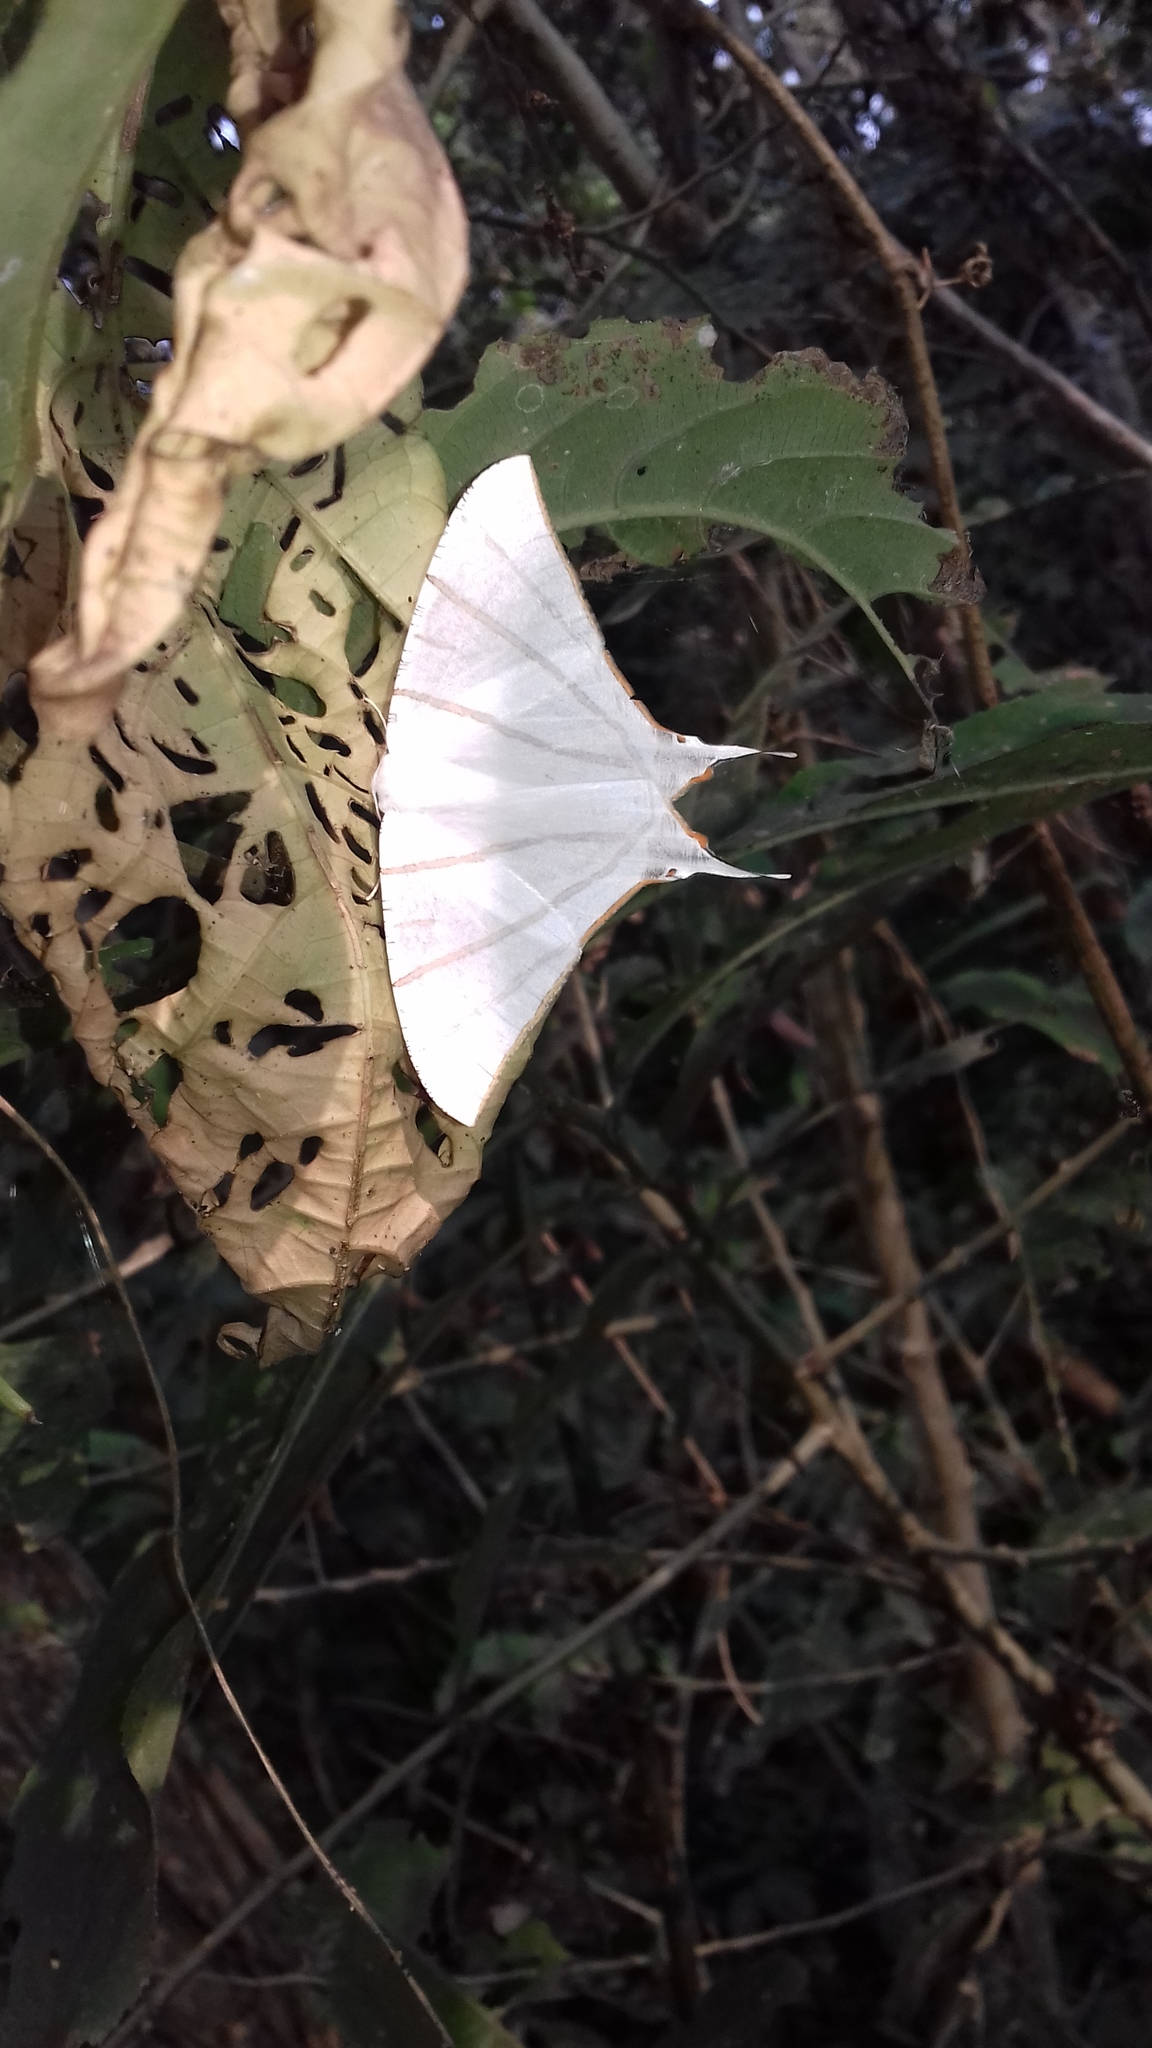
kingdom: Animalia
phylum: Arthropoda
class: Insecta
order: Lepidoptera
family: Geometridae
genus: Ourapteryx
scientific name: Ourapteryx podaliriata
